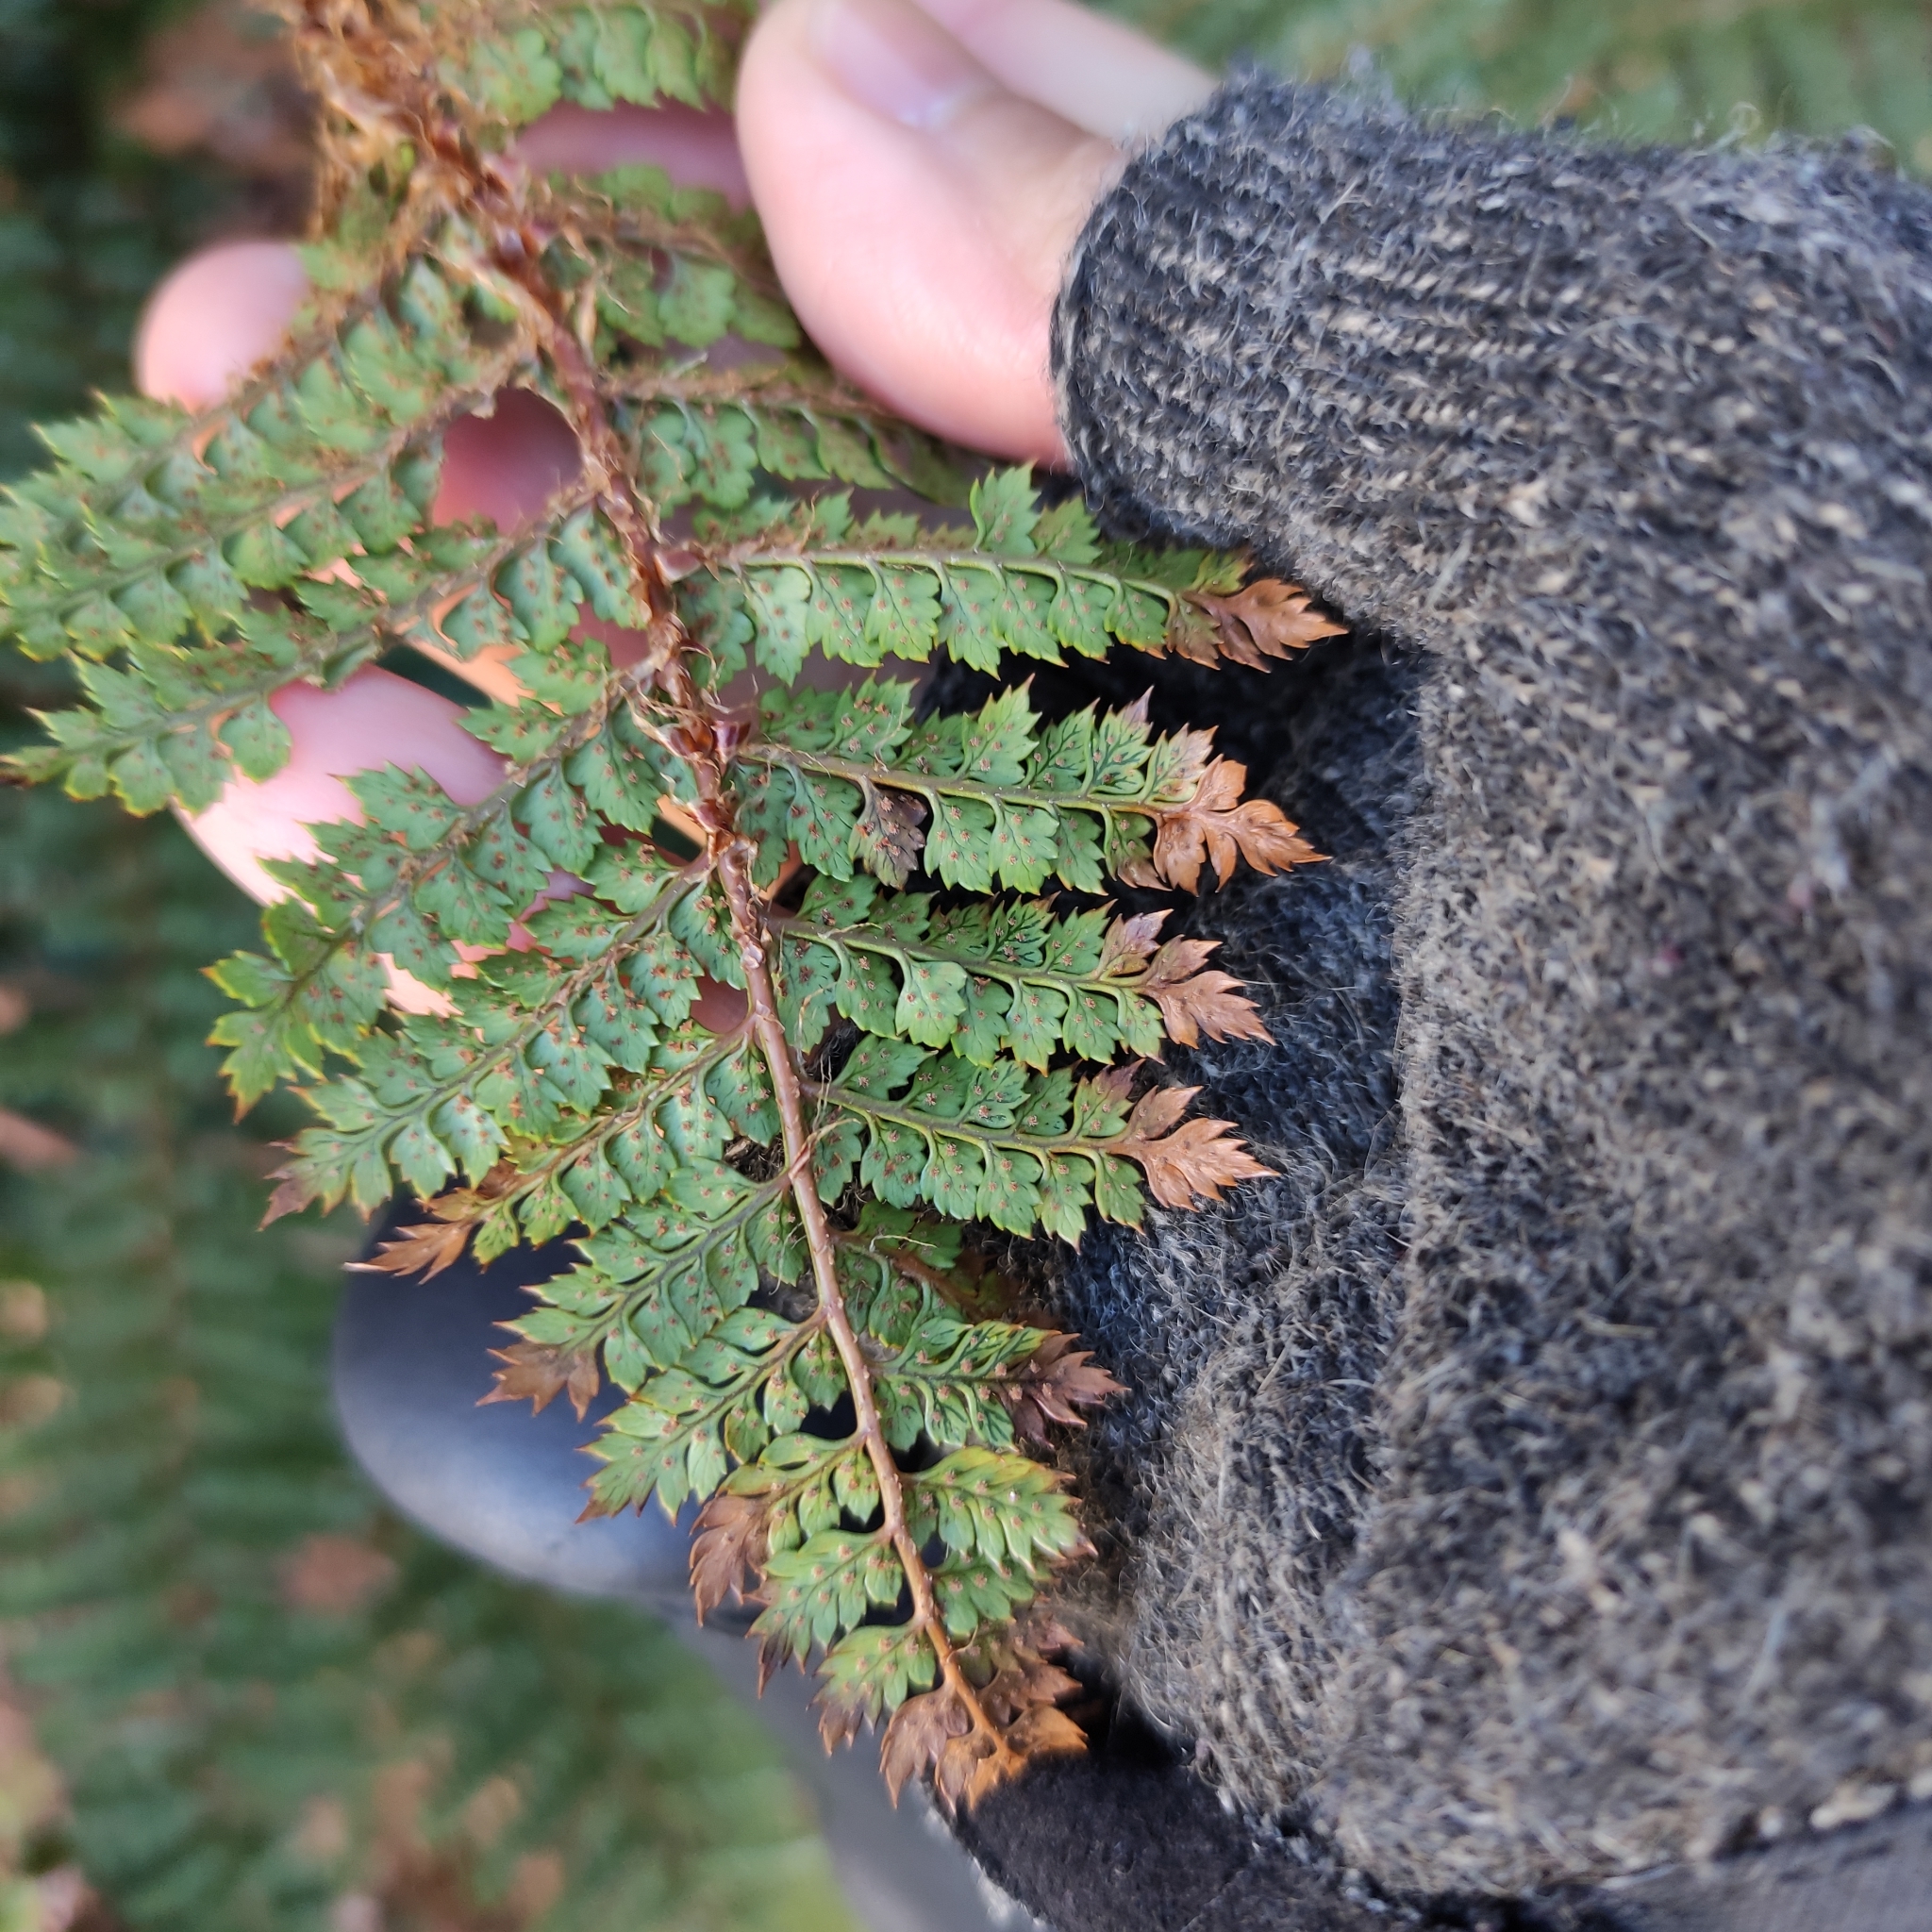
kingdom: Plantae
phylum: Tracheophyta
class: Polypodiopsida
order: Polypodiales
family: Dryopteridaceae
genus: Polystichum
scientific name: Polystichum vestitum
